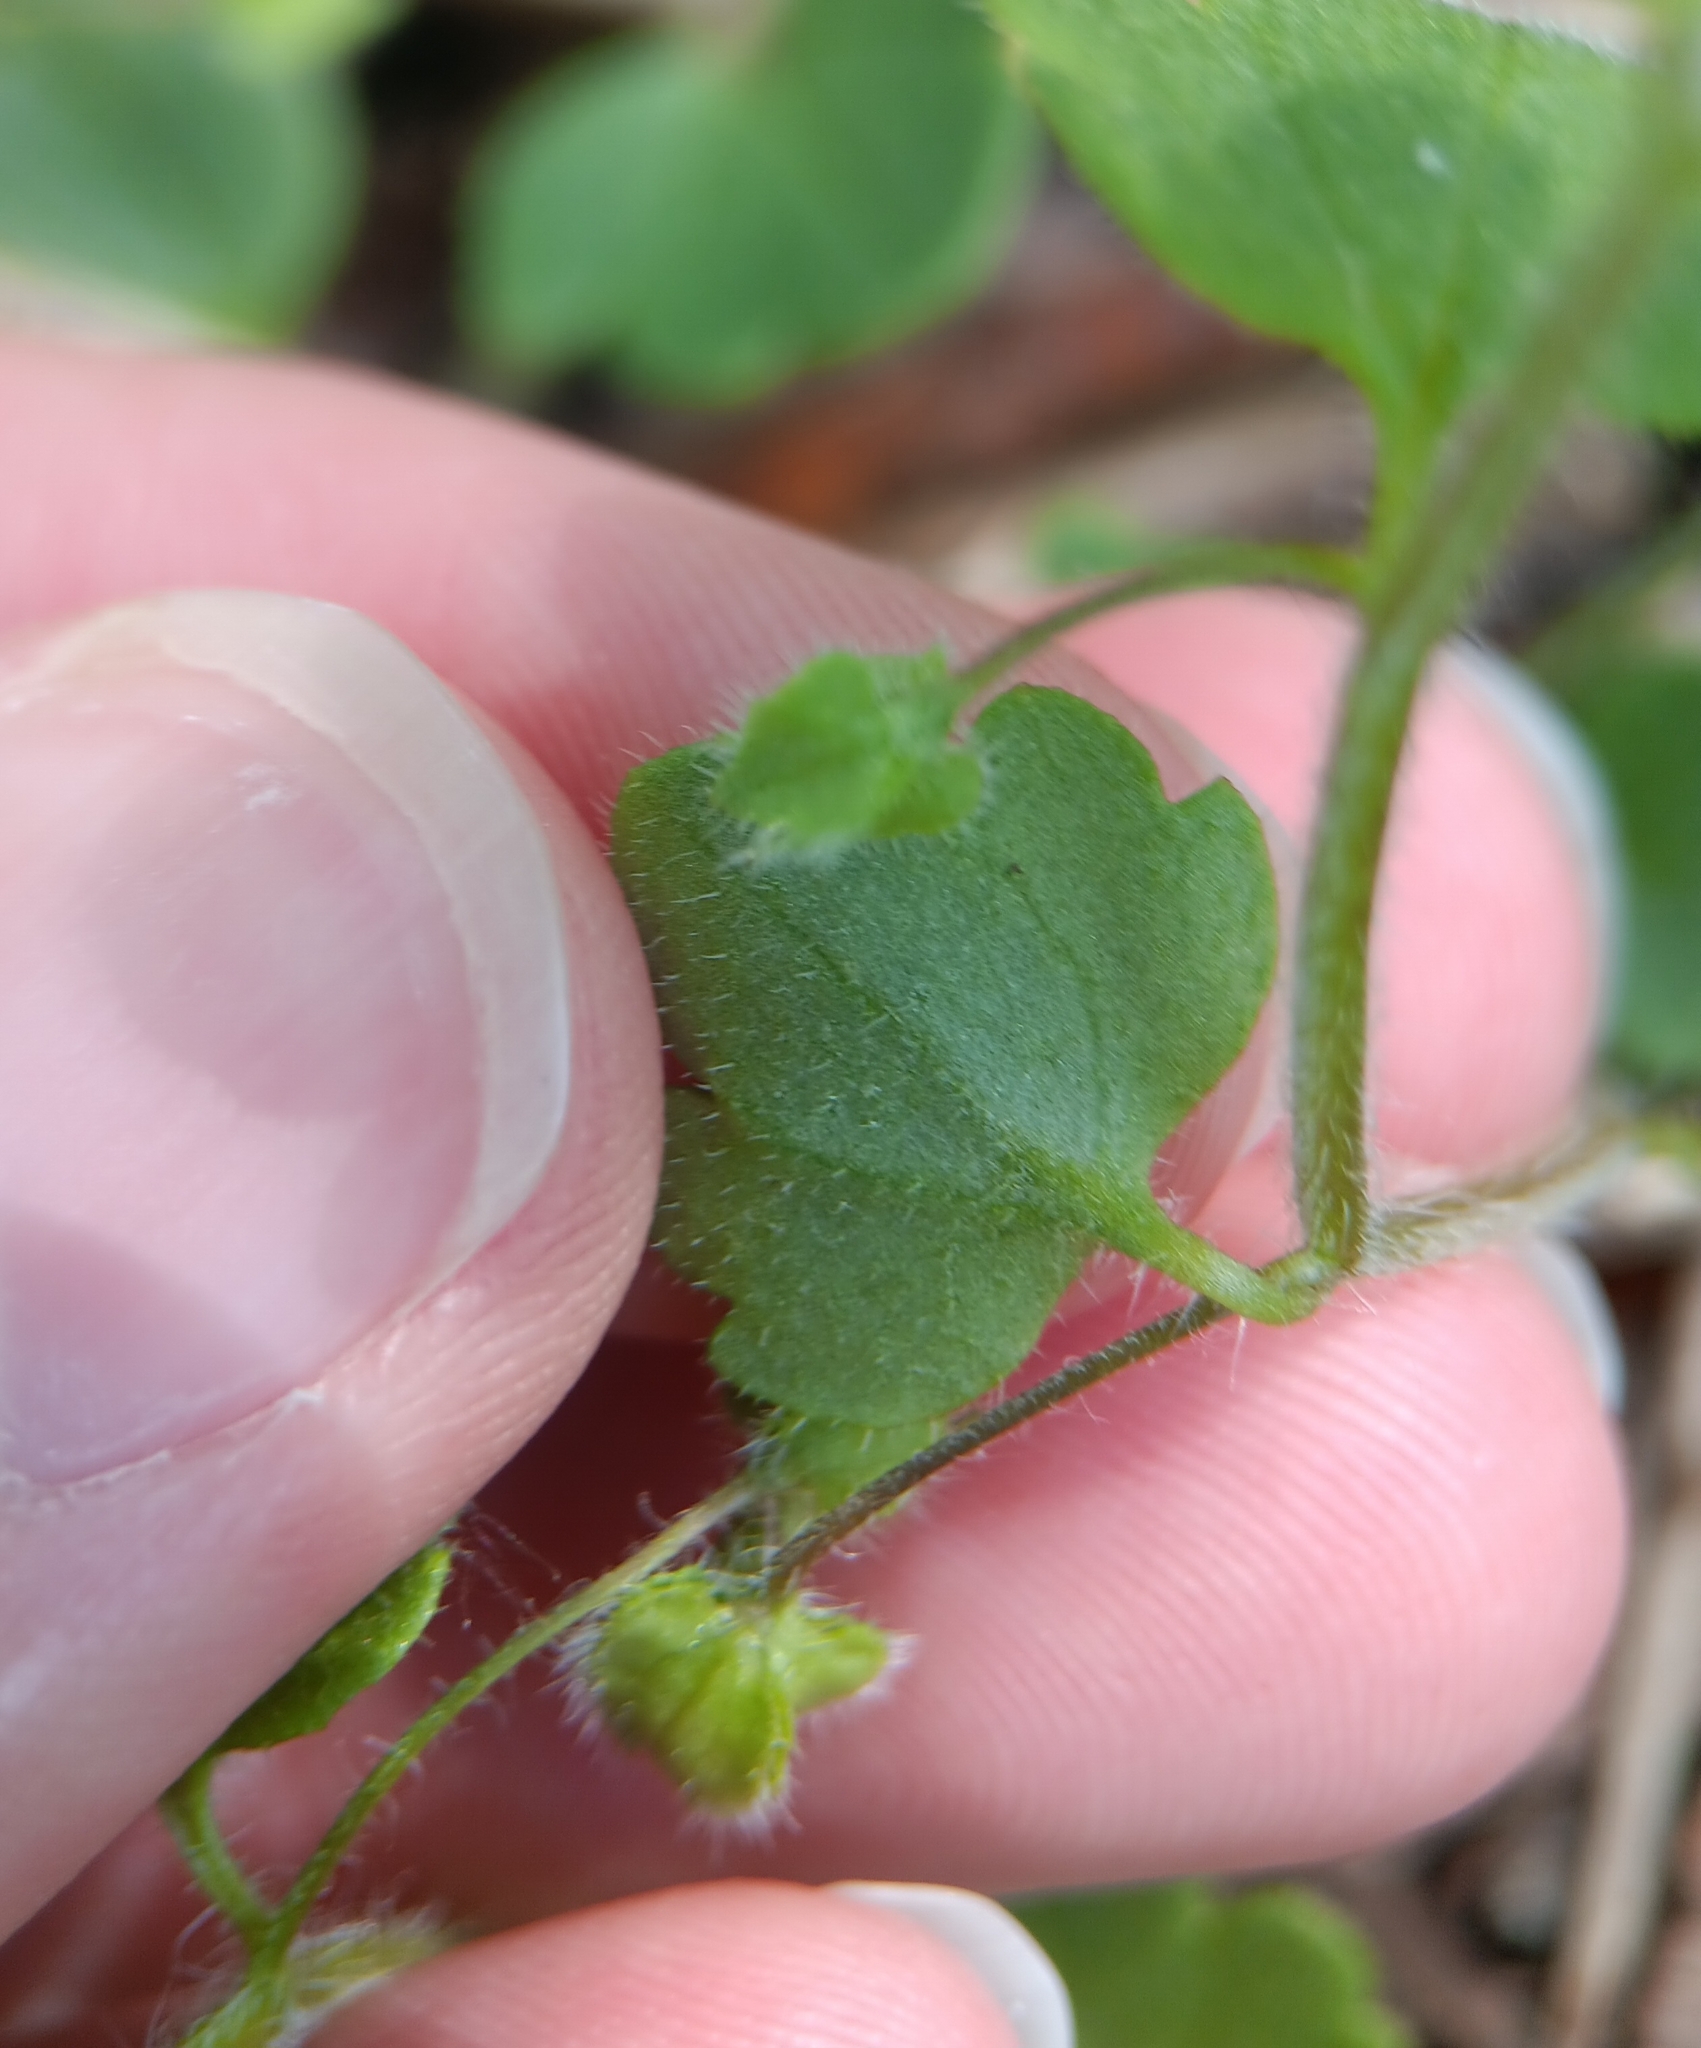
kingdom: Plantae
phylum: Tracheophyta
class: Magnoliopsida
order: Lamiales
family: Plantaginaceae
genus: Veronica
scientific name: Veronica sublobata
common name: False ivy-leaved speedwell
